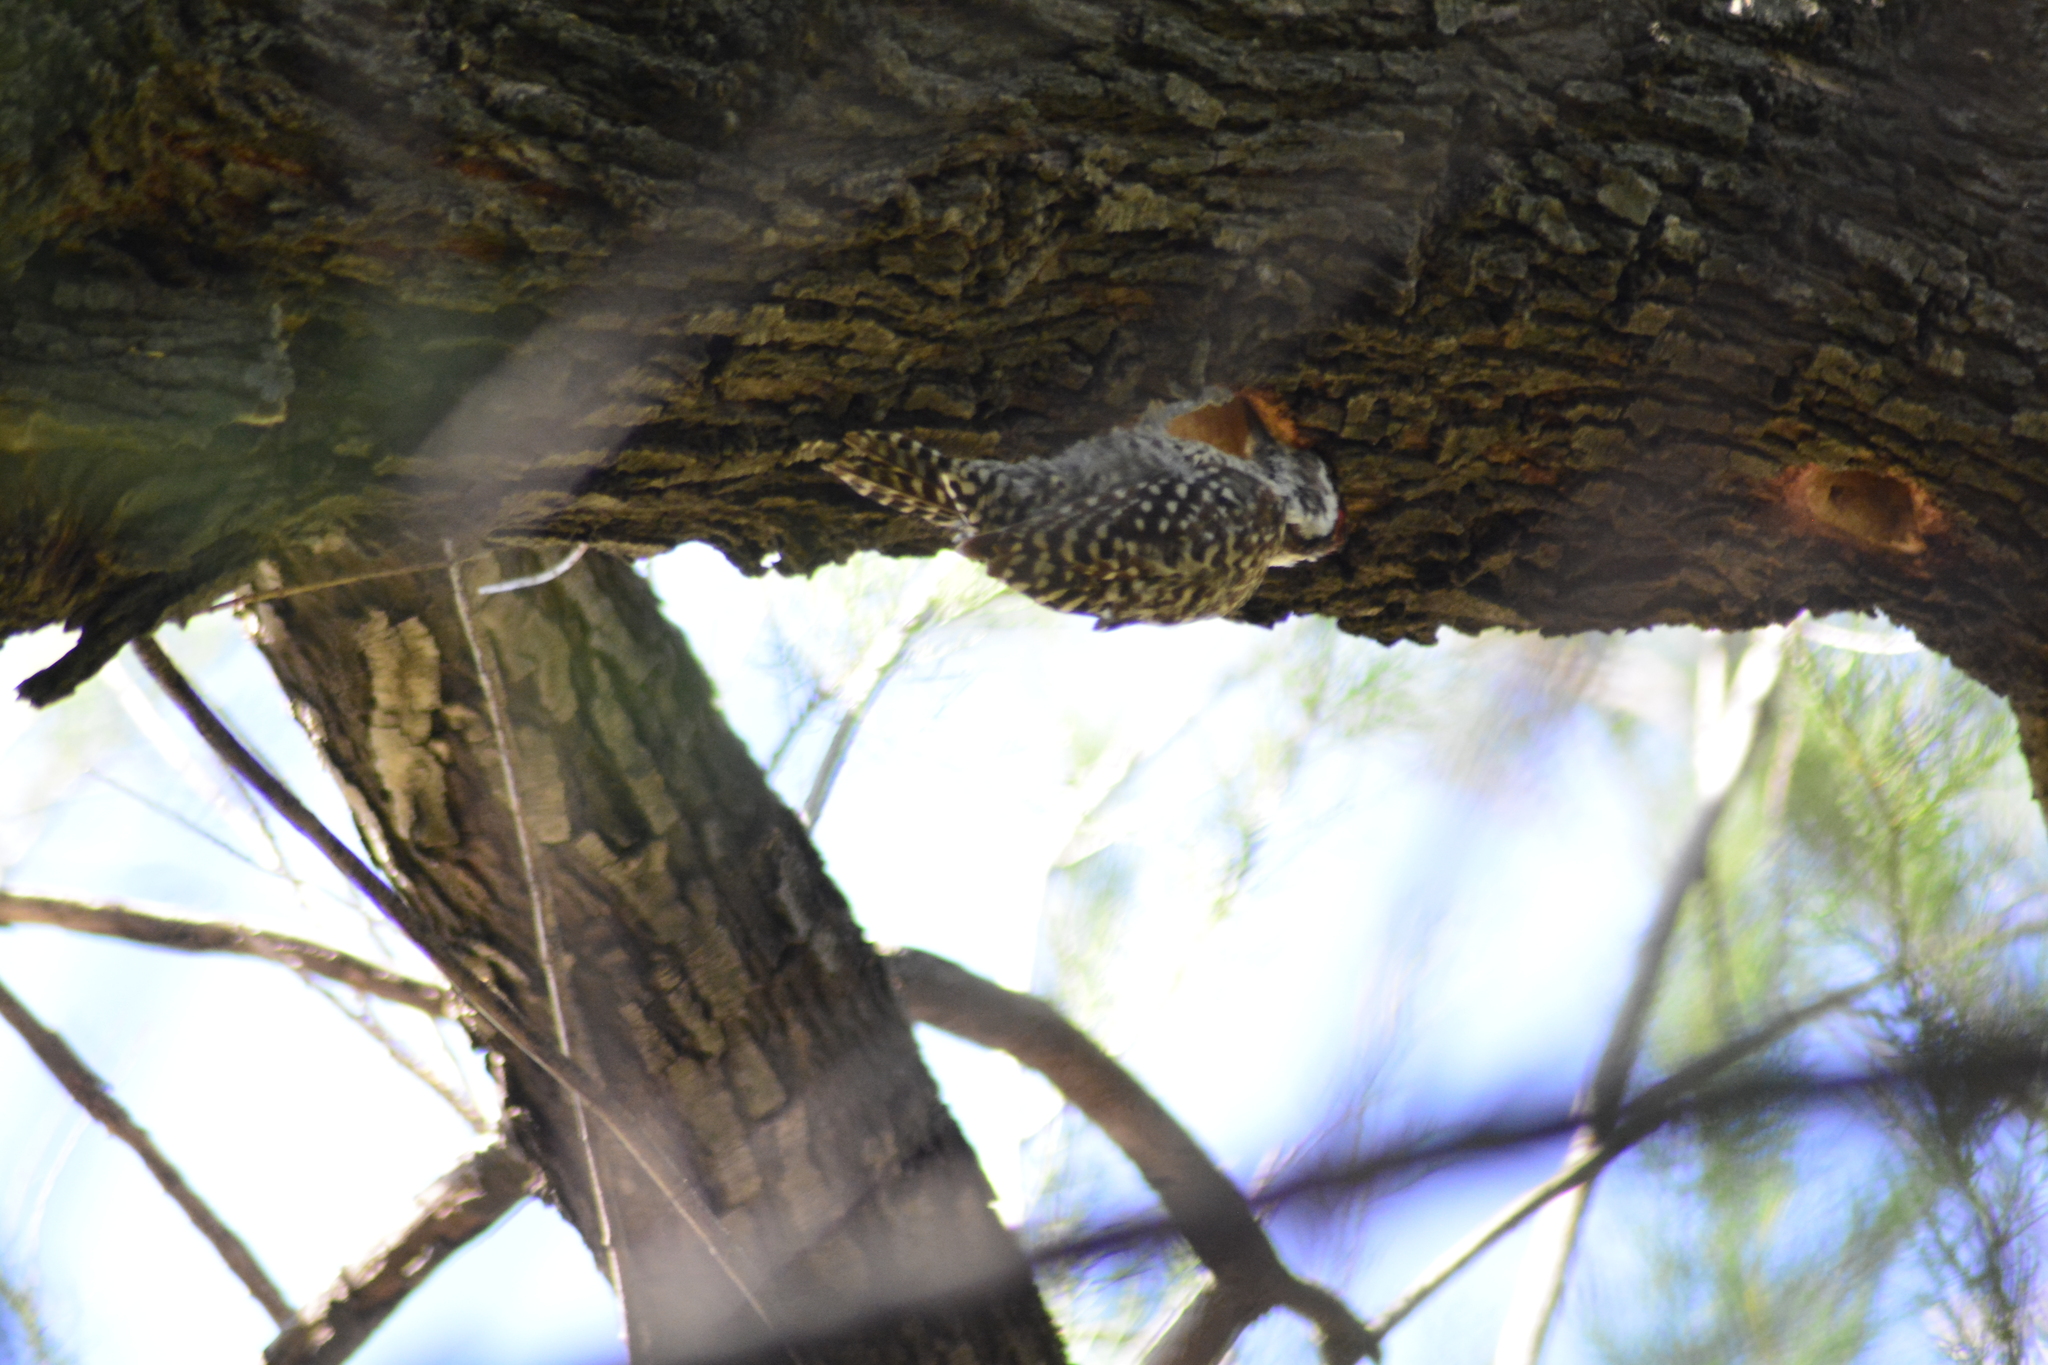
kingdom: Animalia
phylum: Chordata
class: Aves
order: Piciformes
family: Picidae
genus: Veniliornis
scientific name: Veniliornis mixtus
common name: Checkered woodpecker
